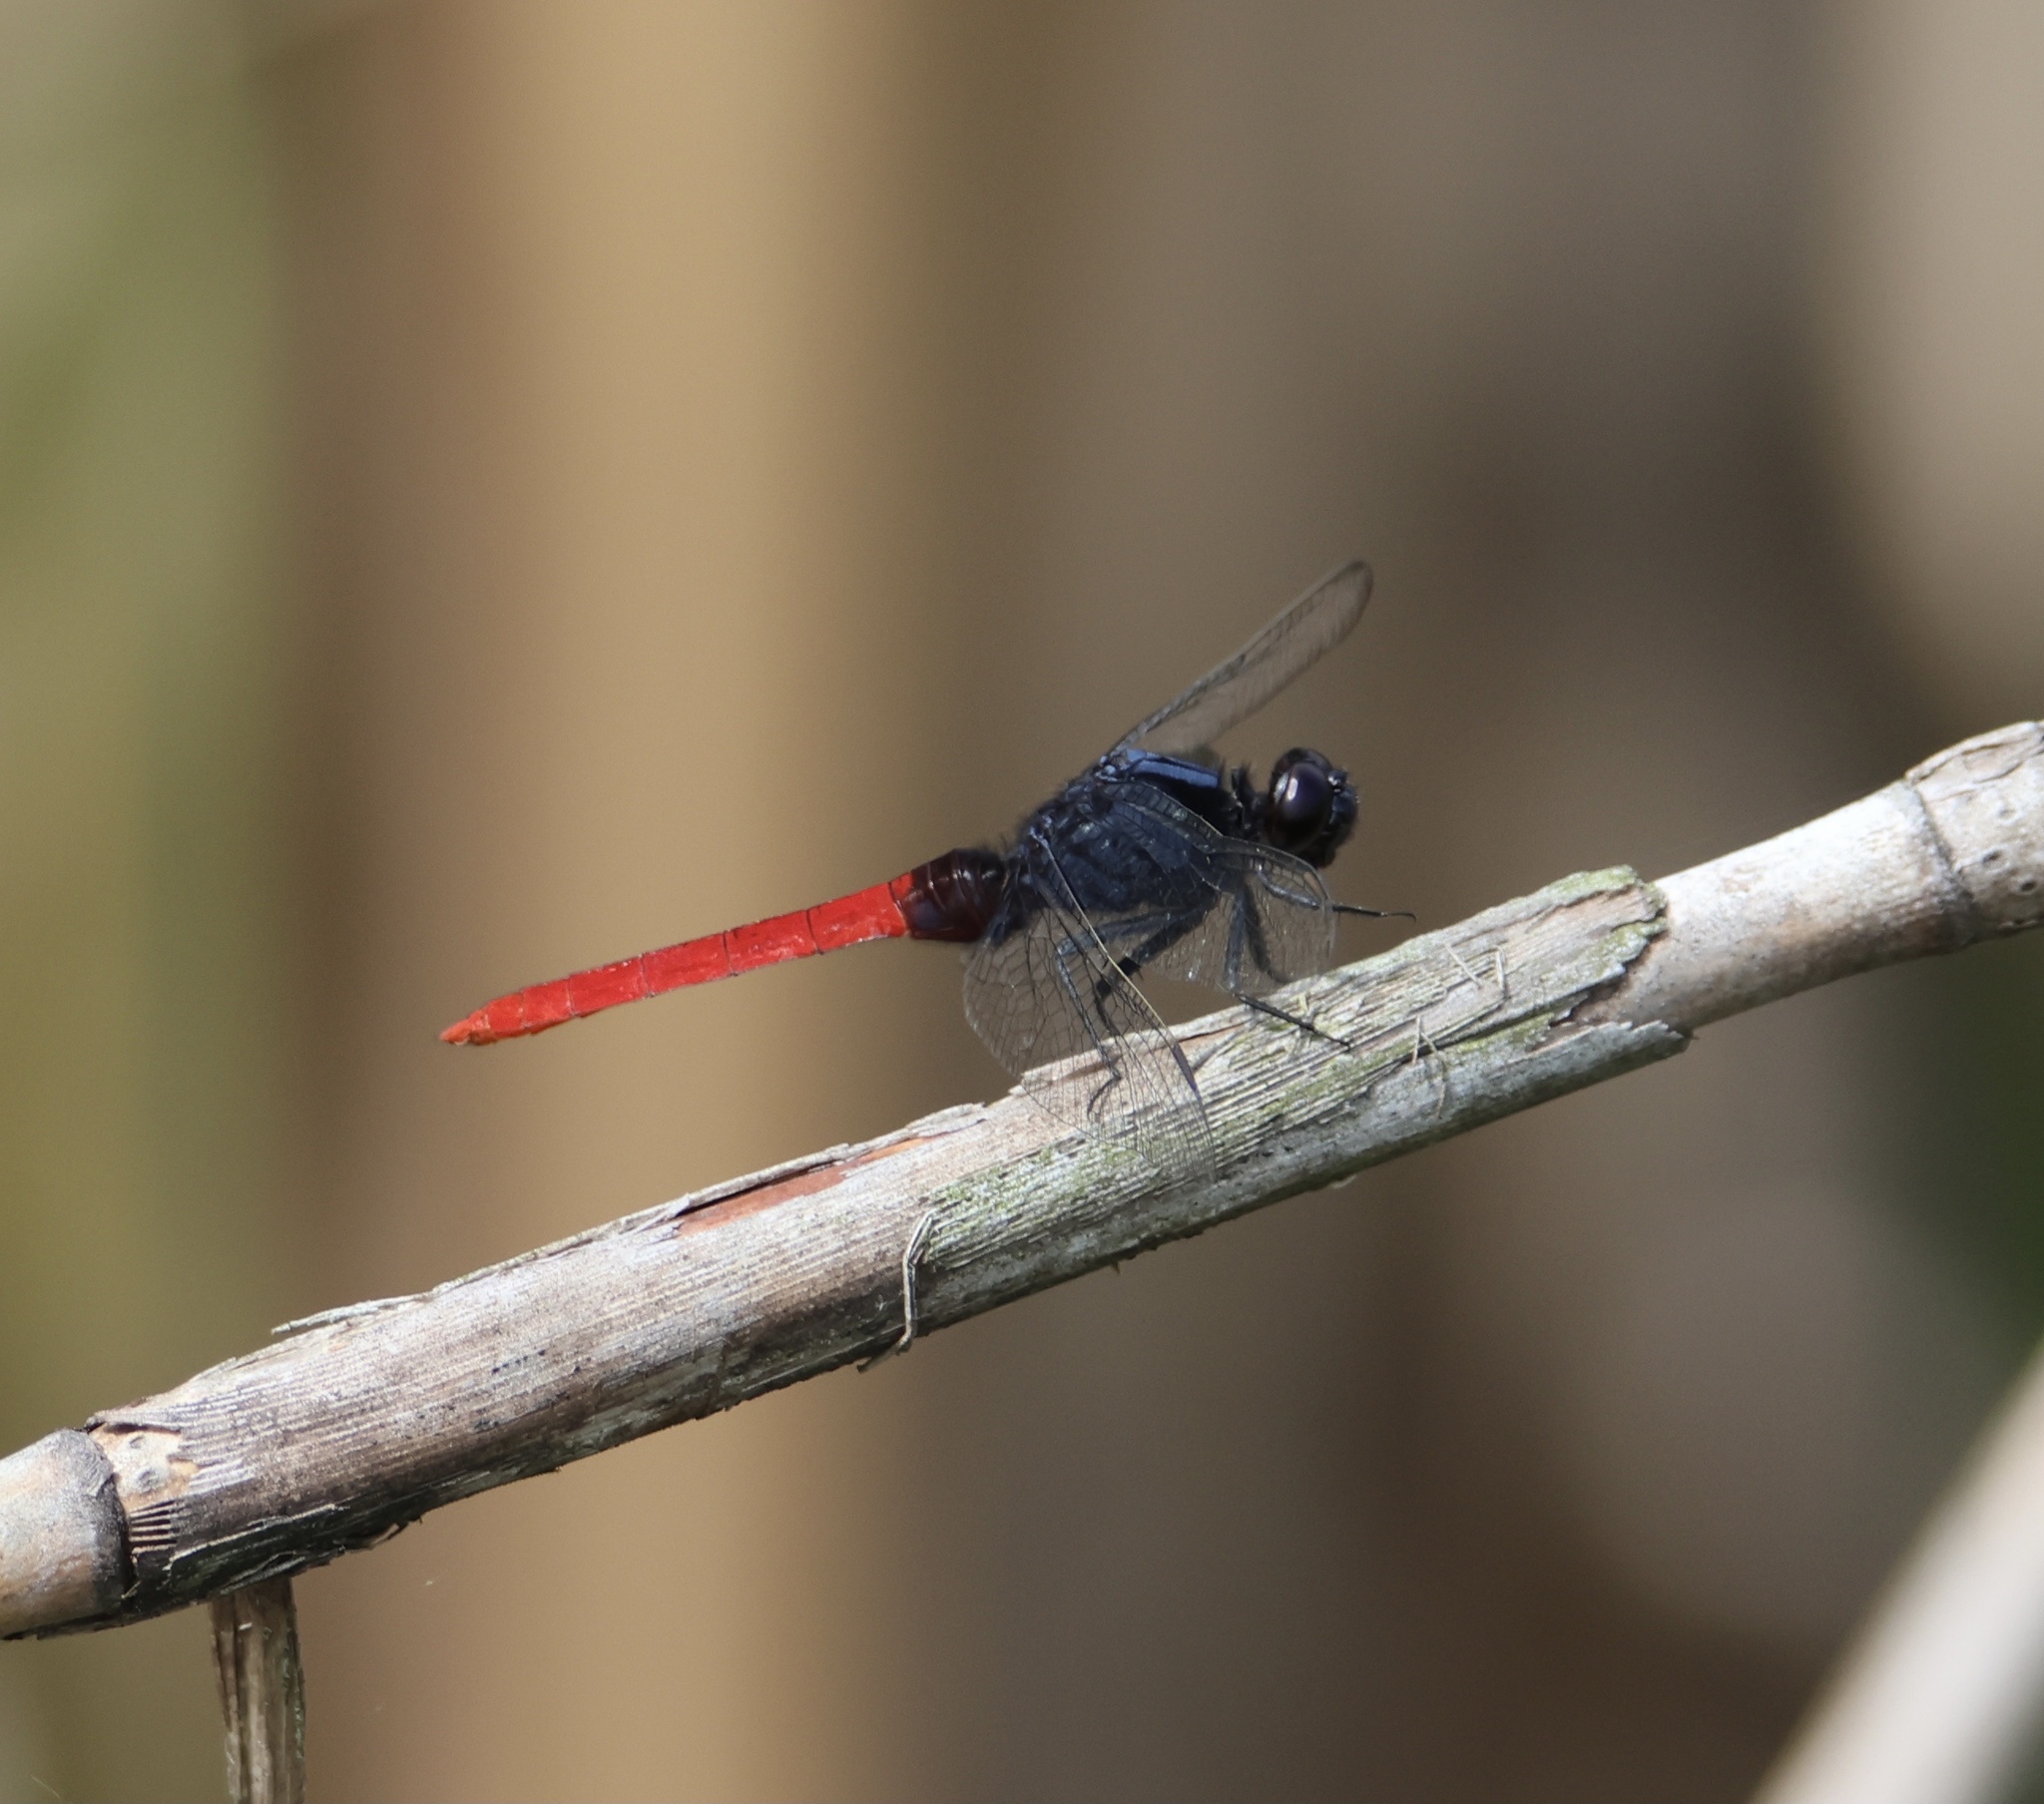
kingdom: Animalia
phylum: Arthropoda
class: Insecta
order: Odonata
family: Libellulidae
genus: Erythemis
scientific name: Erythemis peruviana
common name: Flame-tailed pondhawk
